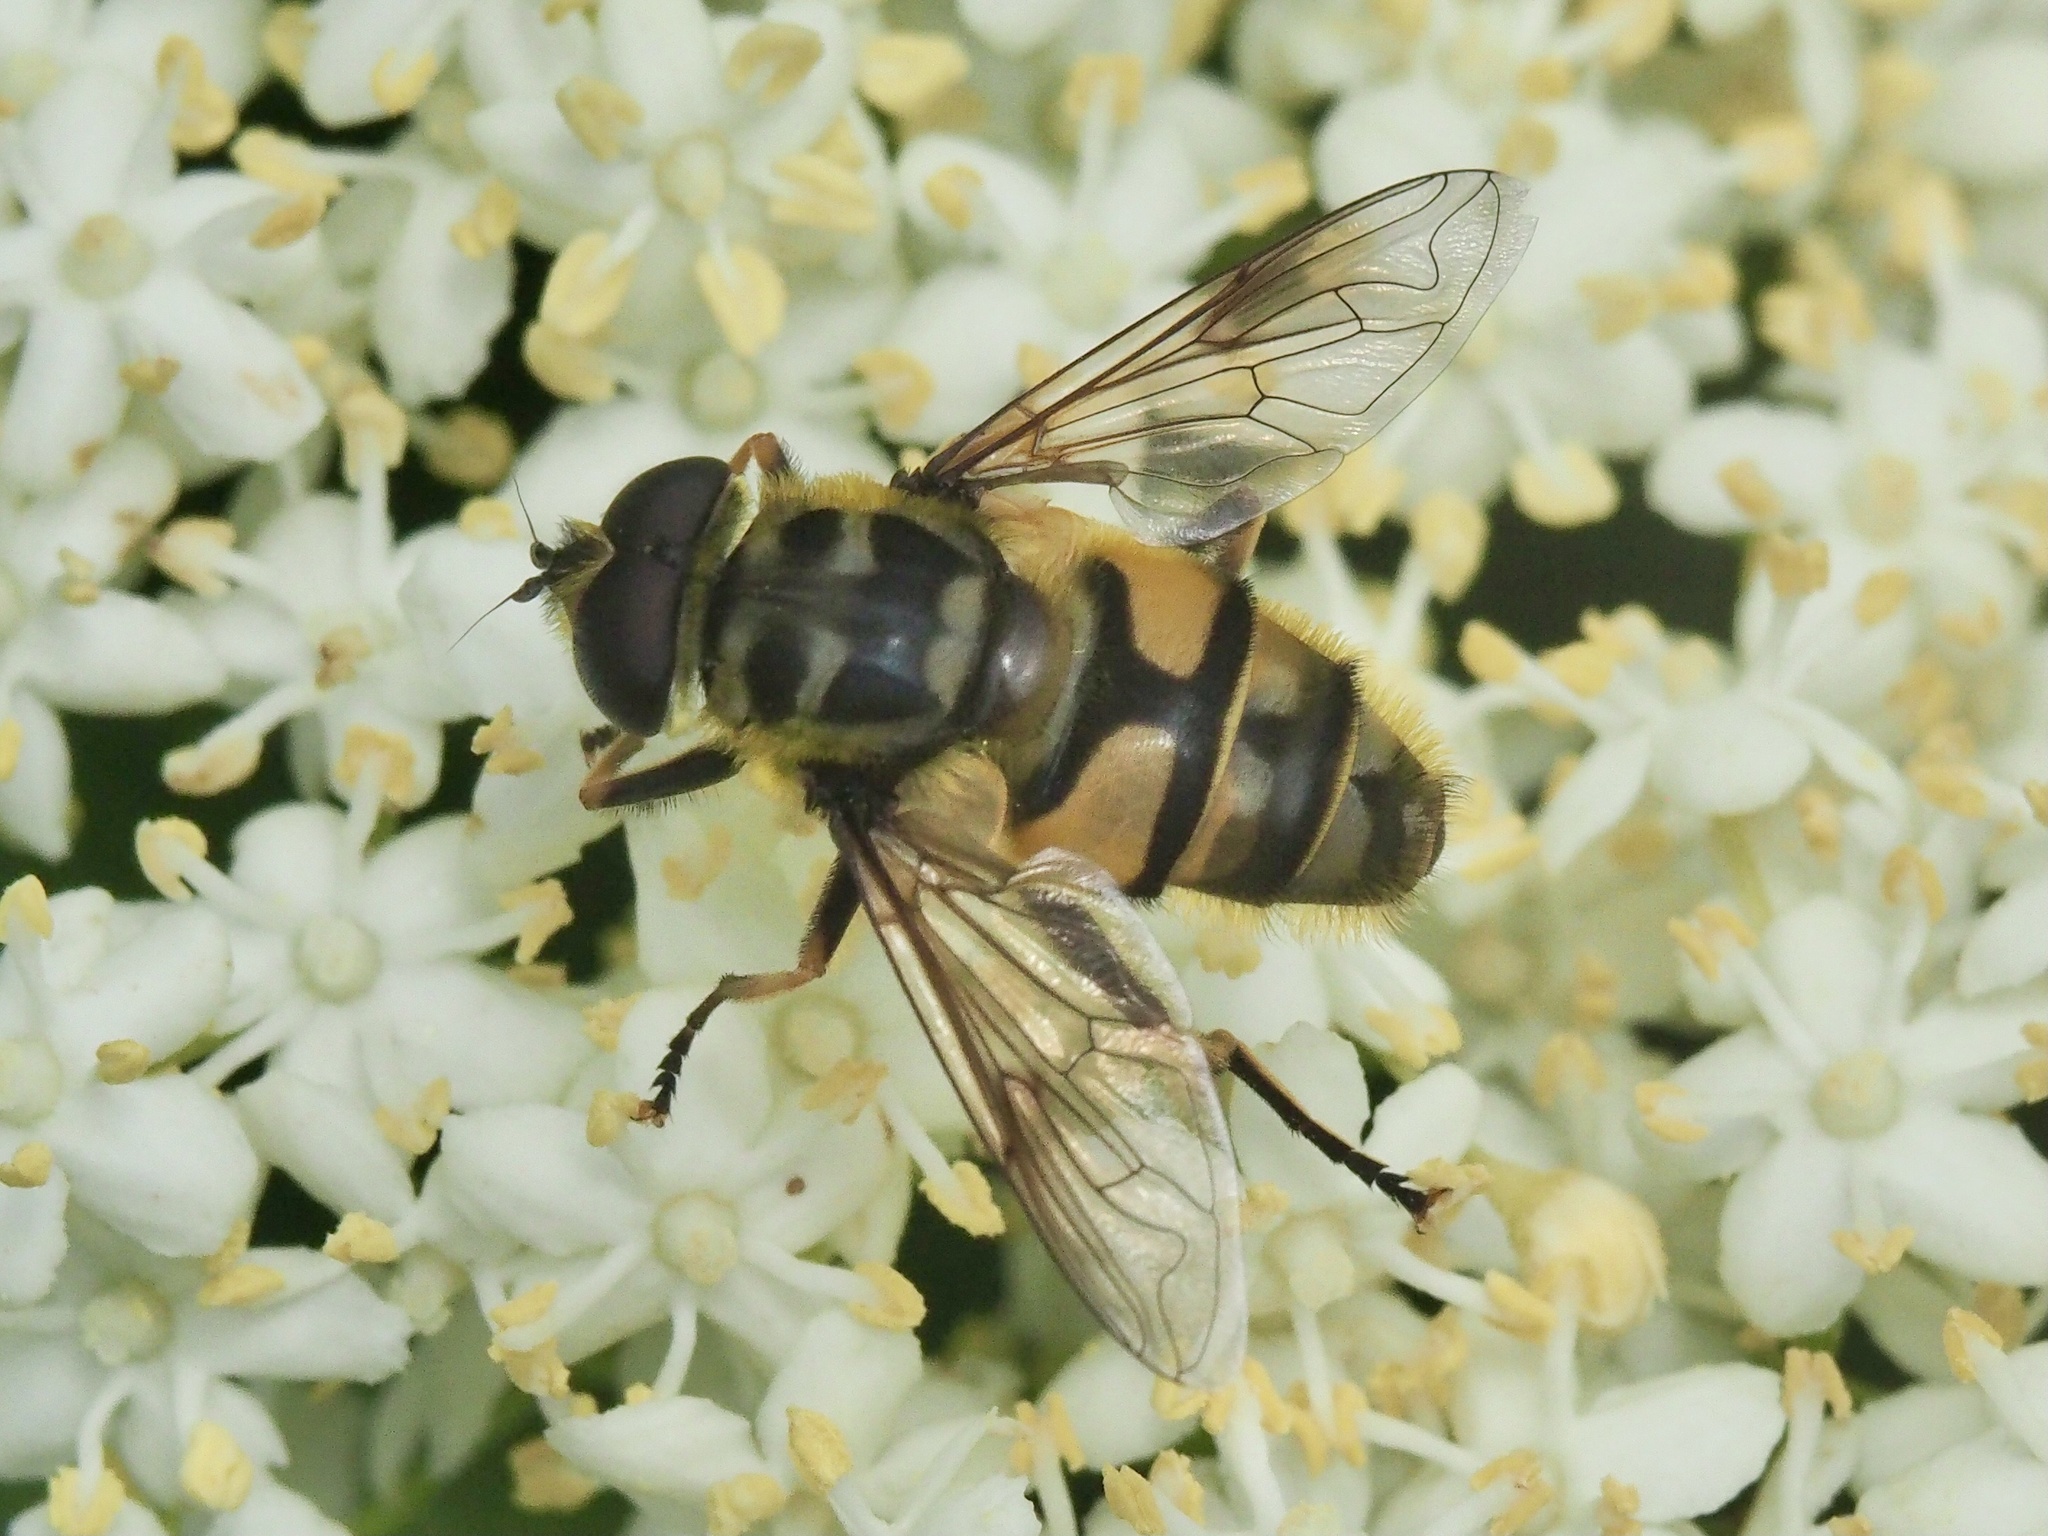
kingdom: Animalia
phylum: Arthropoda
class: Insecta
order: Diptera
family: Syrphidae
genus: Myathropa
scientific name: Myathropa florea
